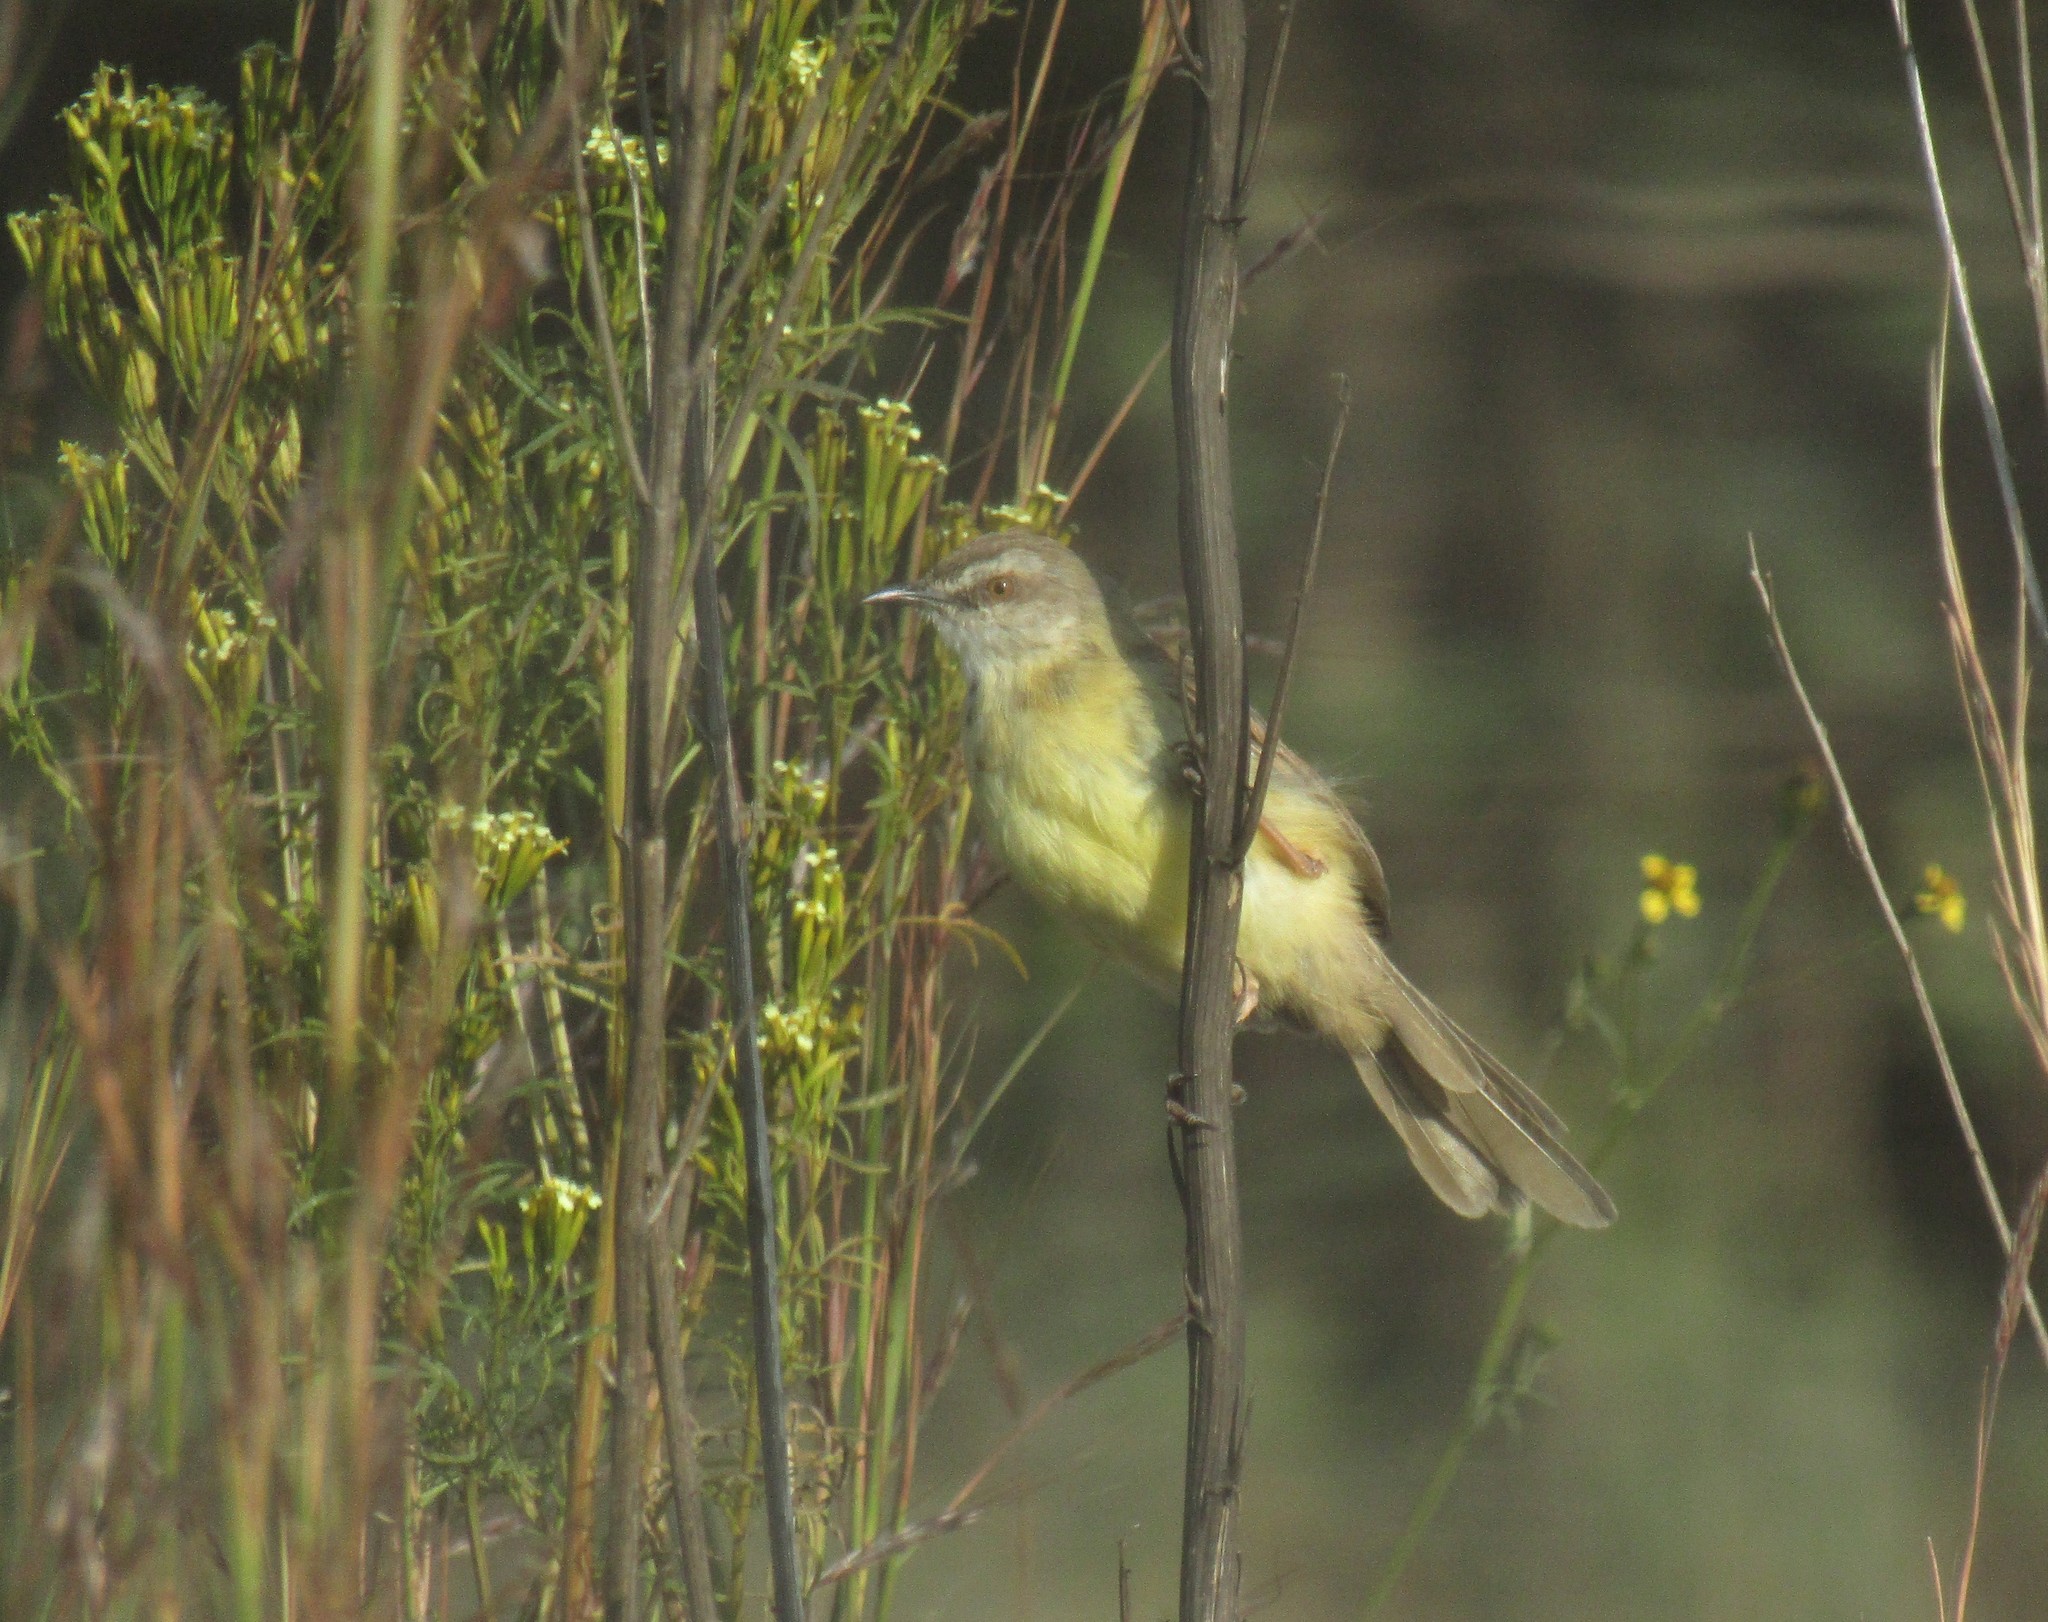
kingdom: Animalia
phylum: Chordata
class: Aves
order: Passeriformes
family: Cisticolidae
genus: Prinia
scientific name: Prinia flavicans
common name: Black-chested prinia
